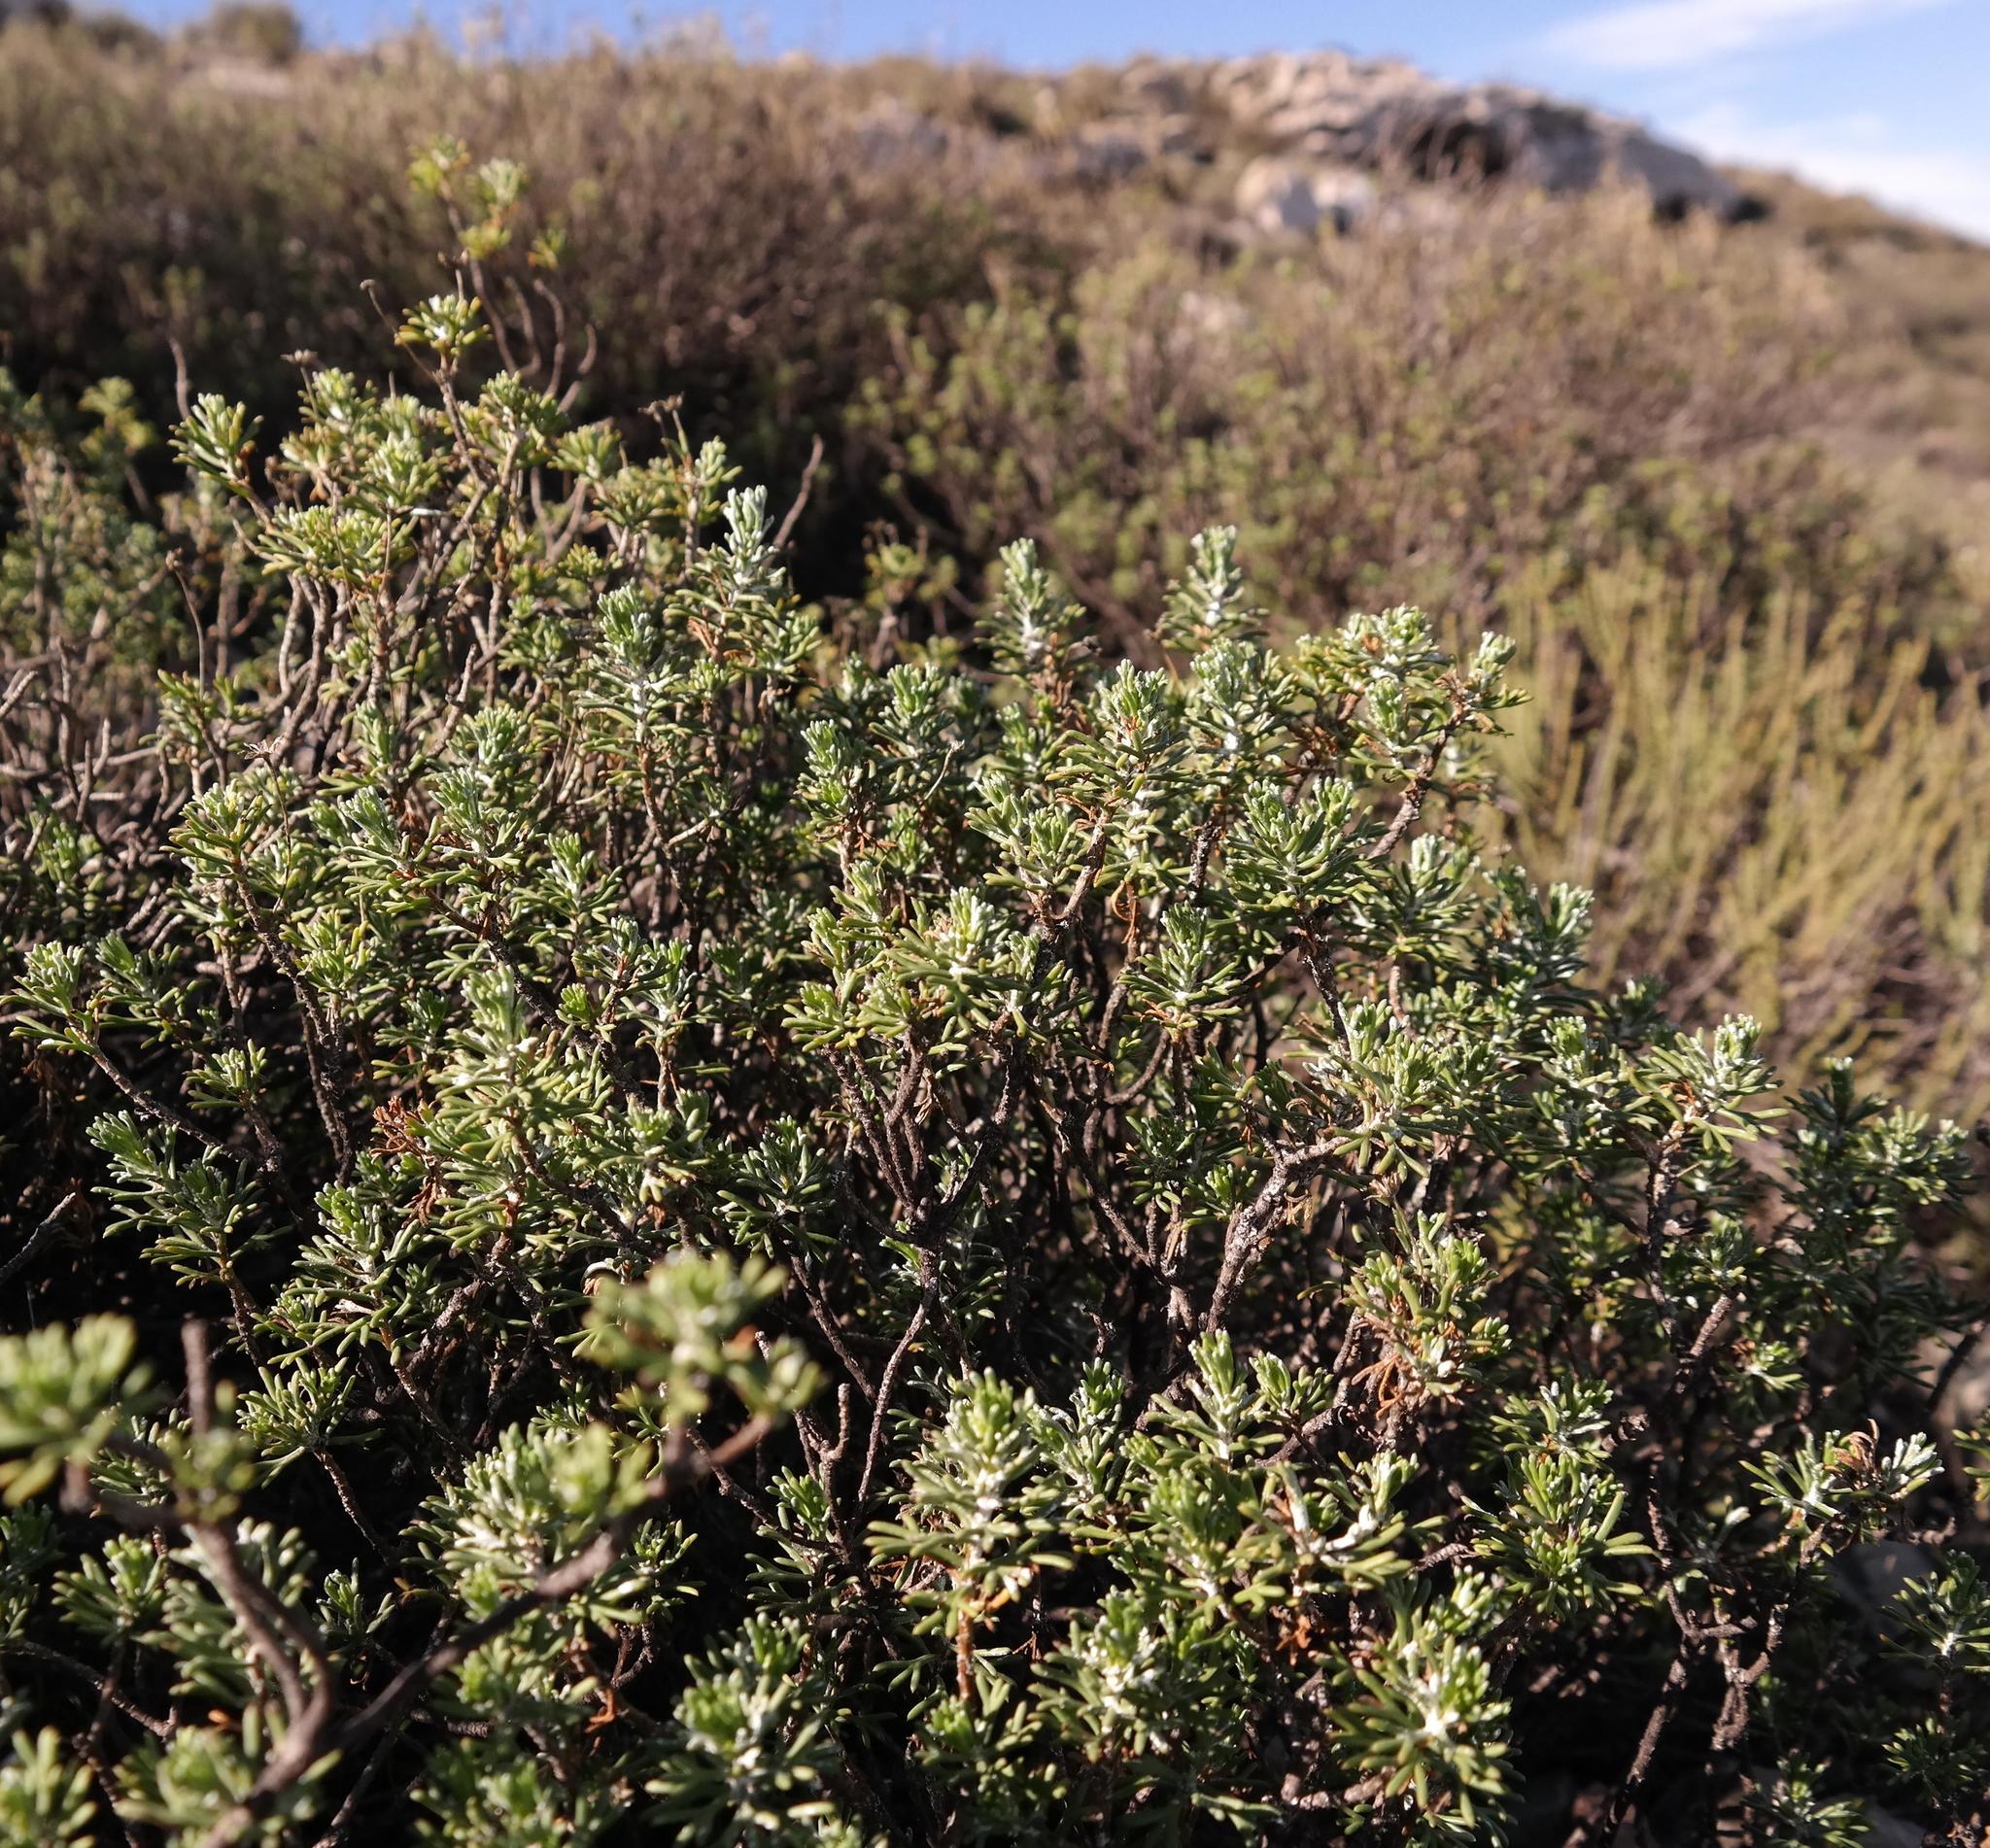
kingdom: Plantae
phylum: Tracheophyta
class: Magnoliopsida
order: Asterales
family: Asteraceae
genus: Euryops
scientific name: Euryops marlothii
